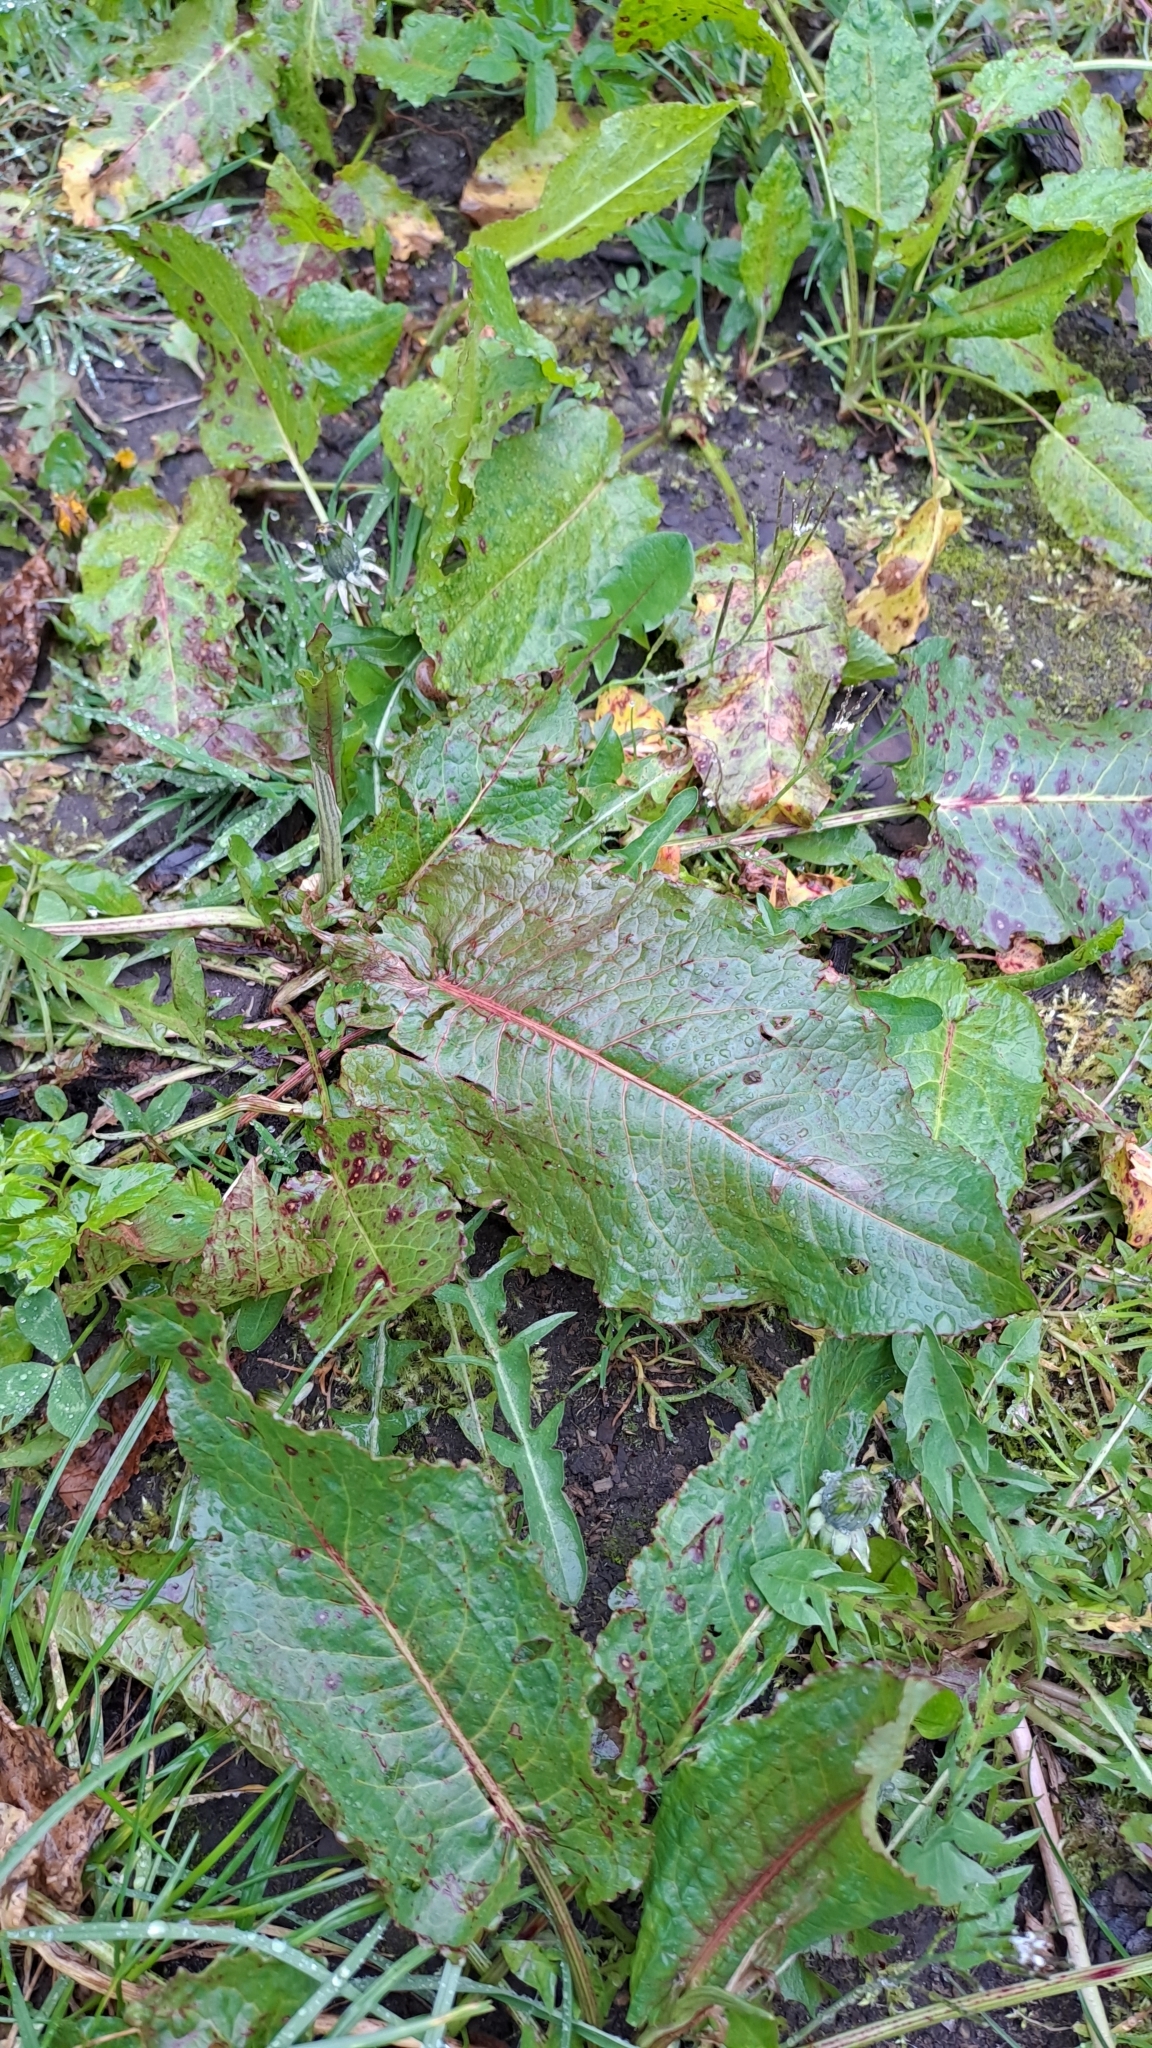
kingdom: Plantae
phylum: Tracheophyta
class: Magnoliopsida
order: Caryophyllales
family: Polygonaceae
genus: Rumex
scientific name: Rumex obtusifolius
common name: Bitter dock
